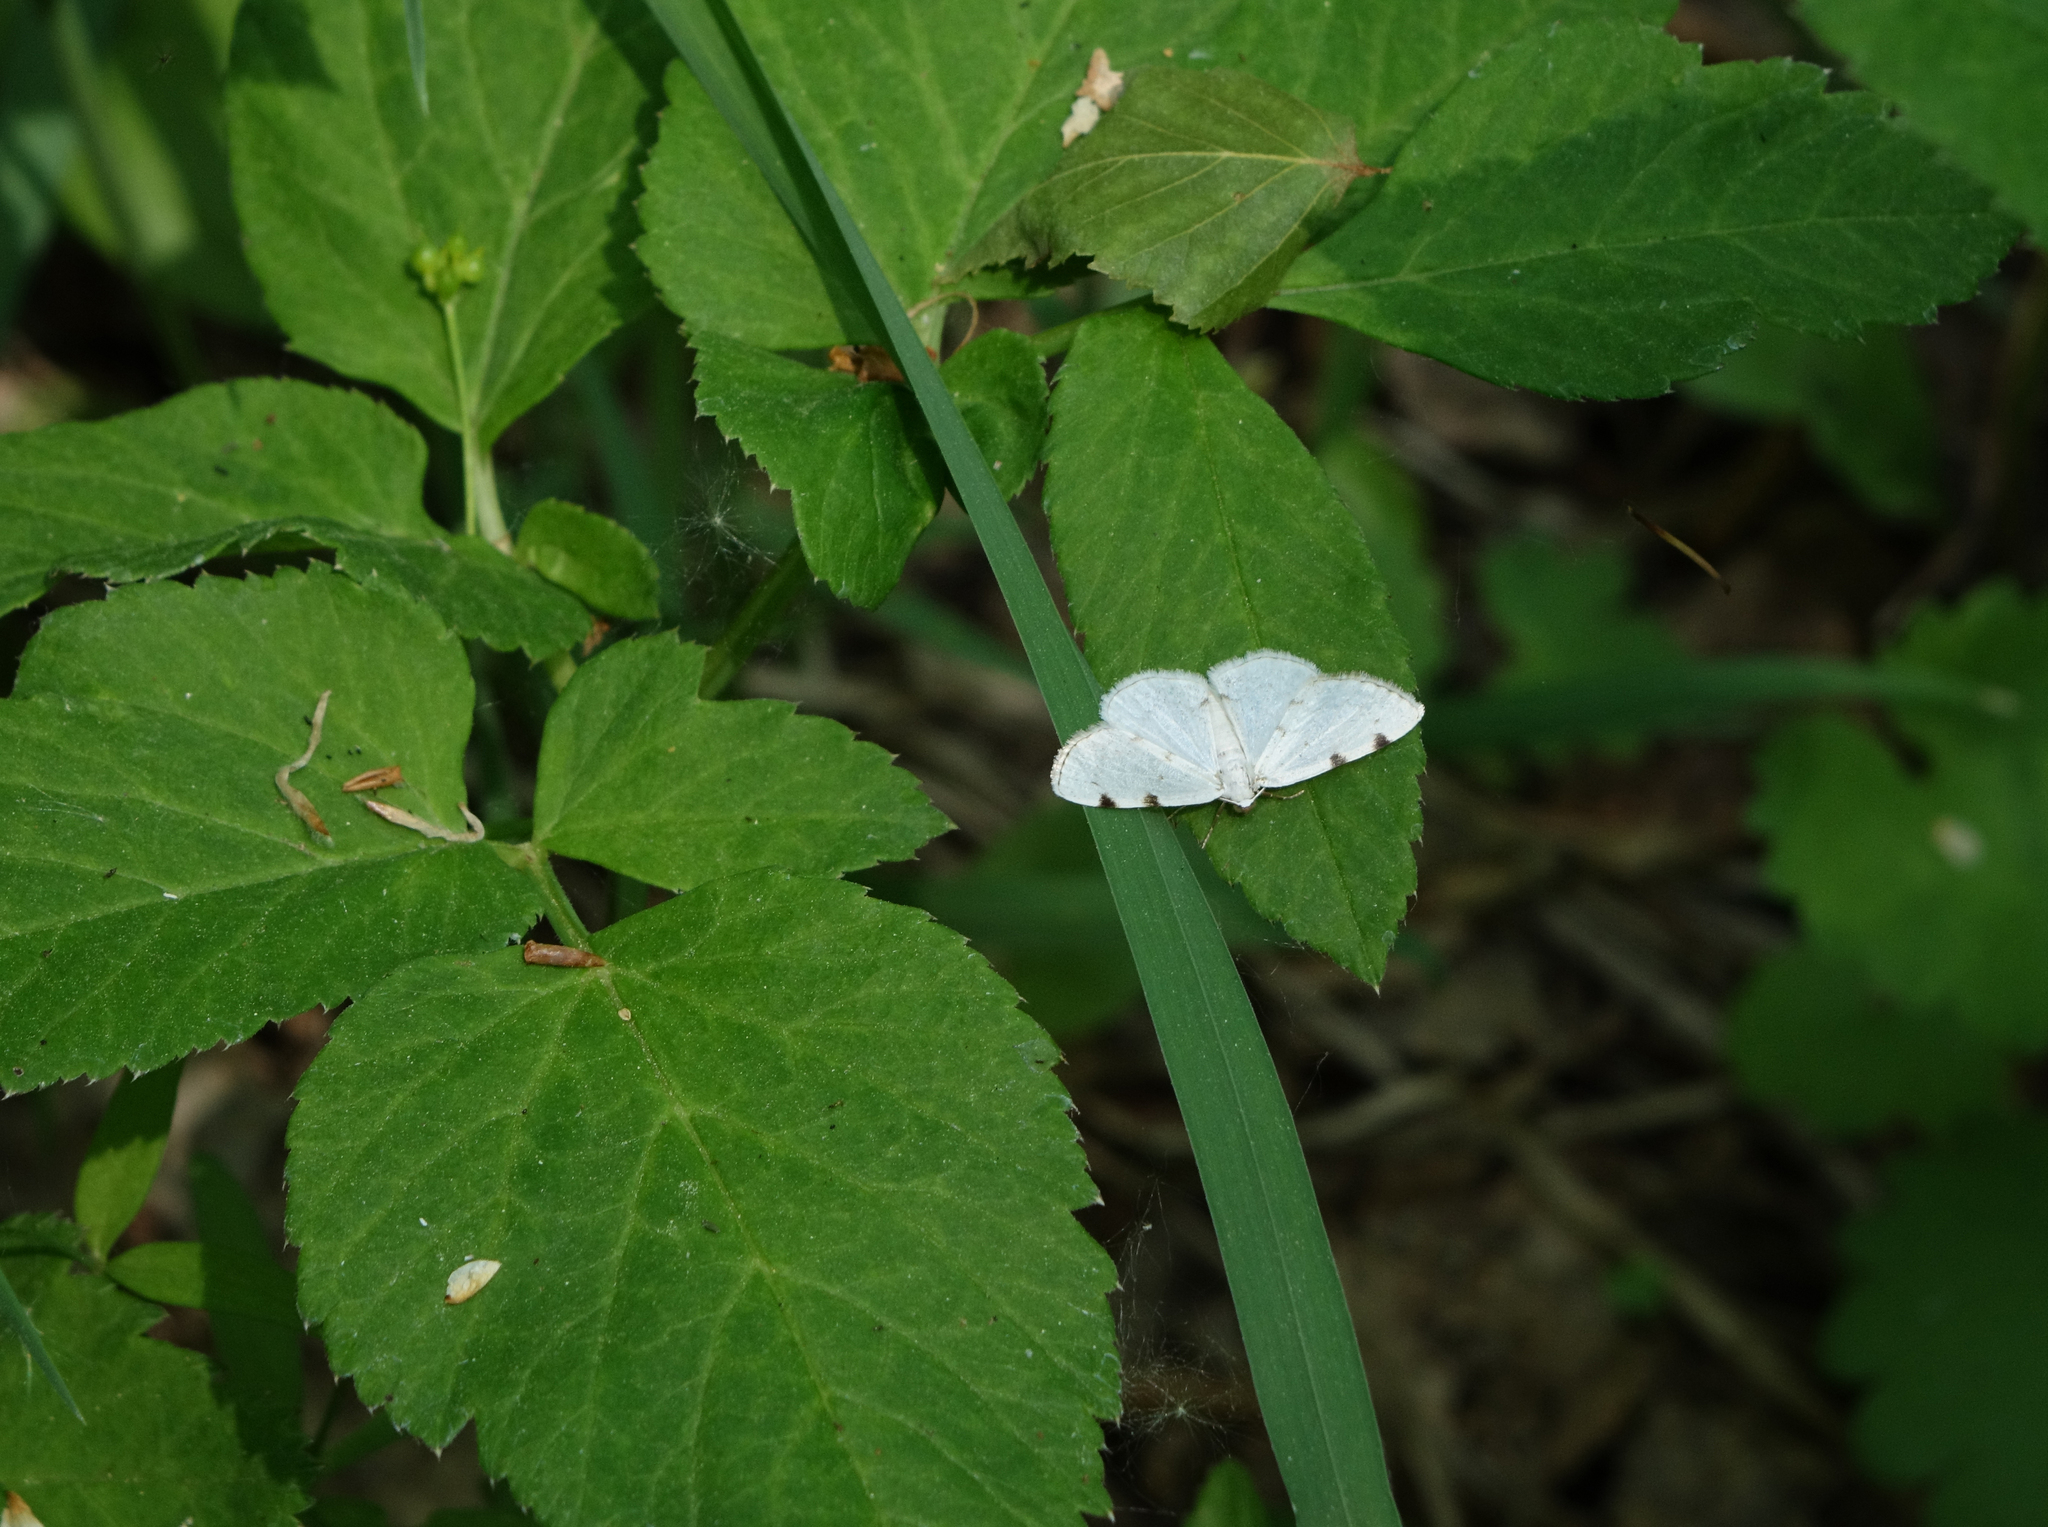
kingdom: Animalia
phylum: Arthropoda
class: Insecta
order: Lepidoptera
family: Geometridae
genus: Lomographa
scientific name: Lomographa bimaculata
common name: White-pinion spotted
